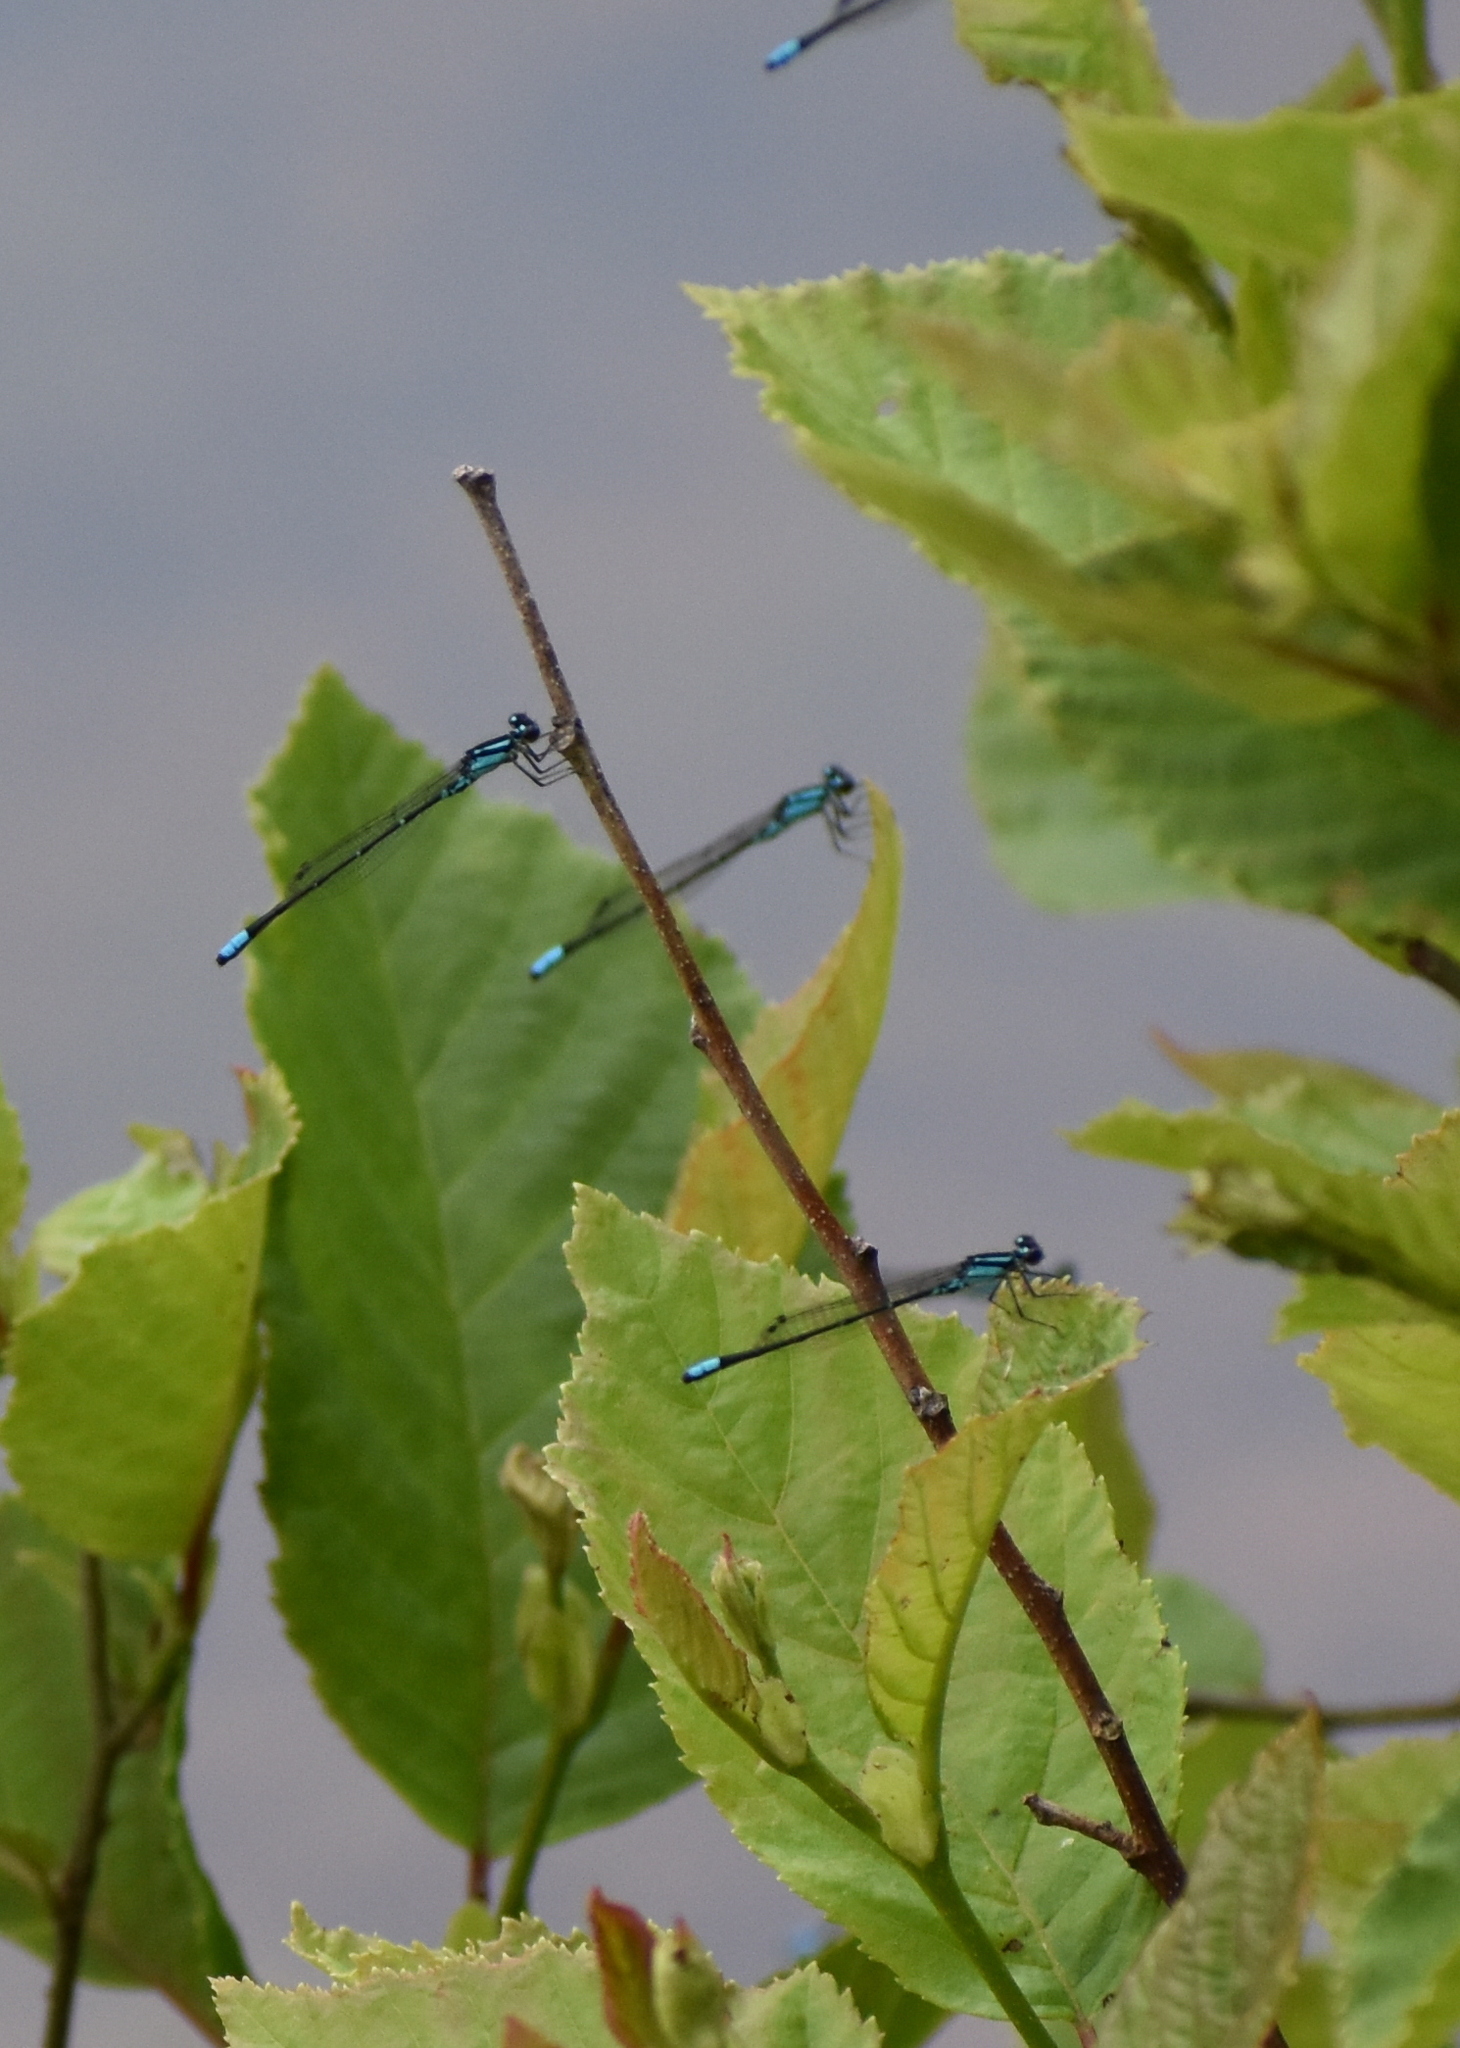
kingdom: Animalia
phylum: Arthropoda
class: Insecta
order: Odonata
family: Coenagrionidae
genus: Enallagma
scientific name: Enallagma geminatum
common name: Skimming bluet
